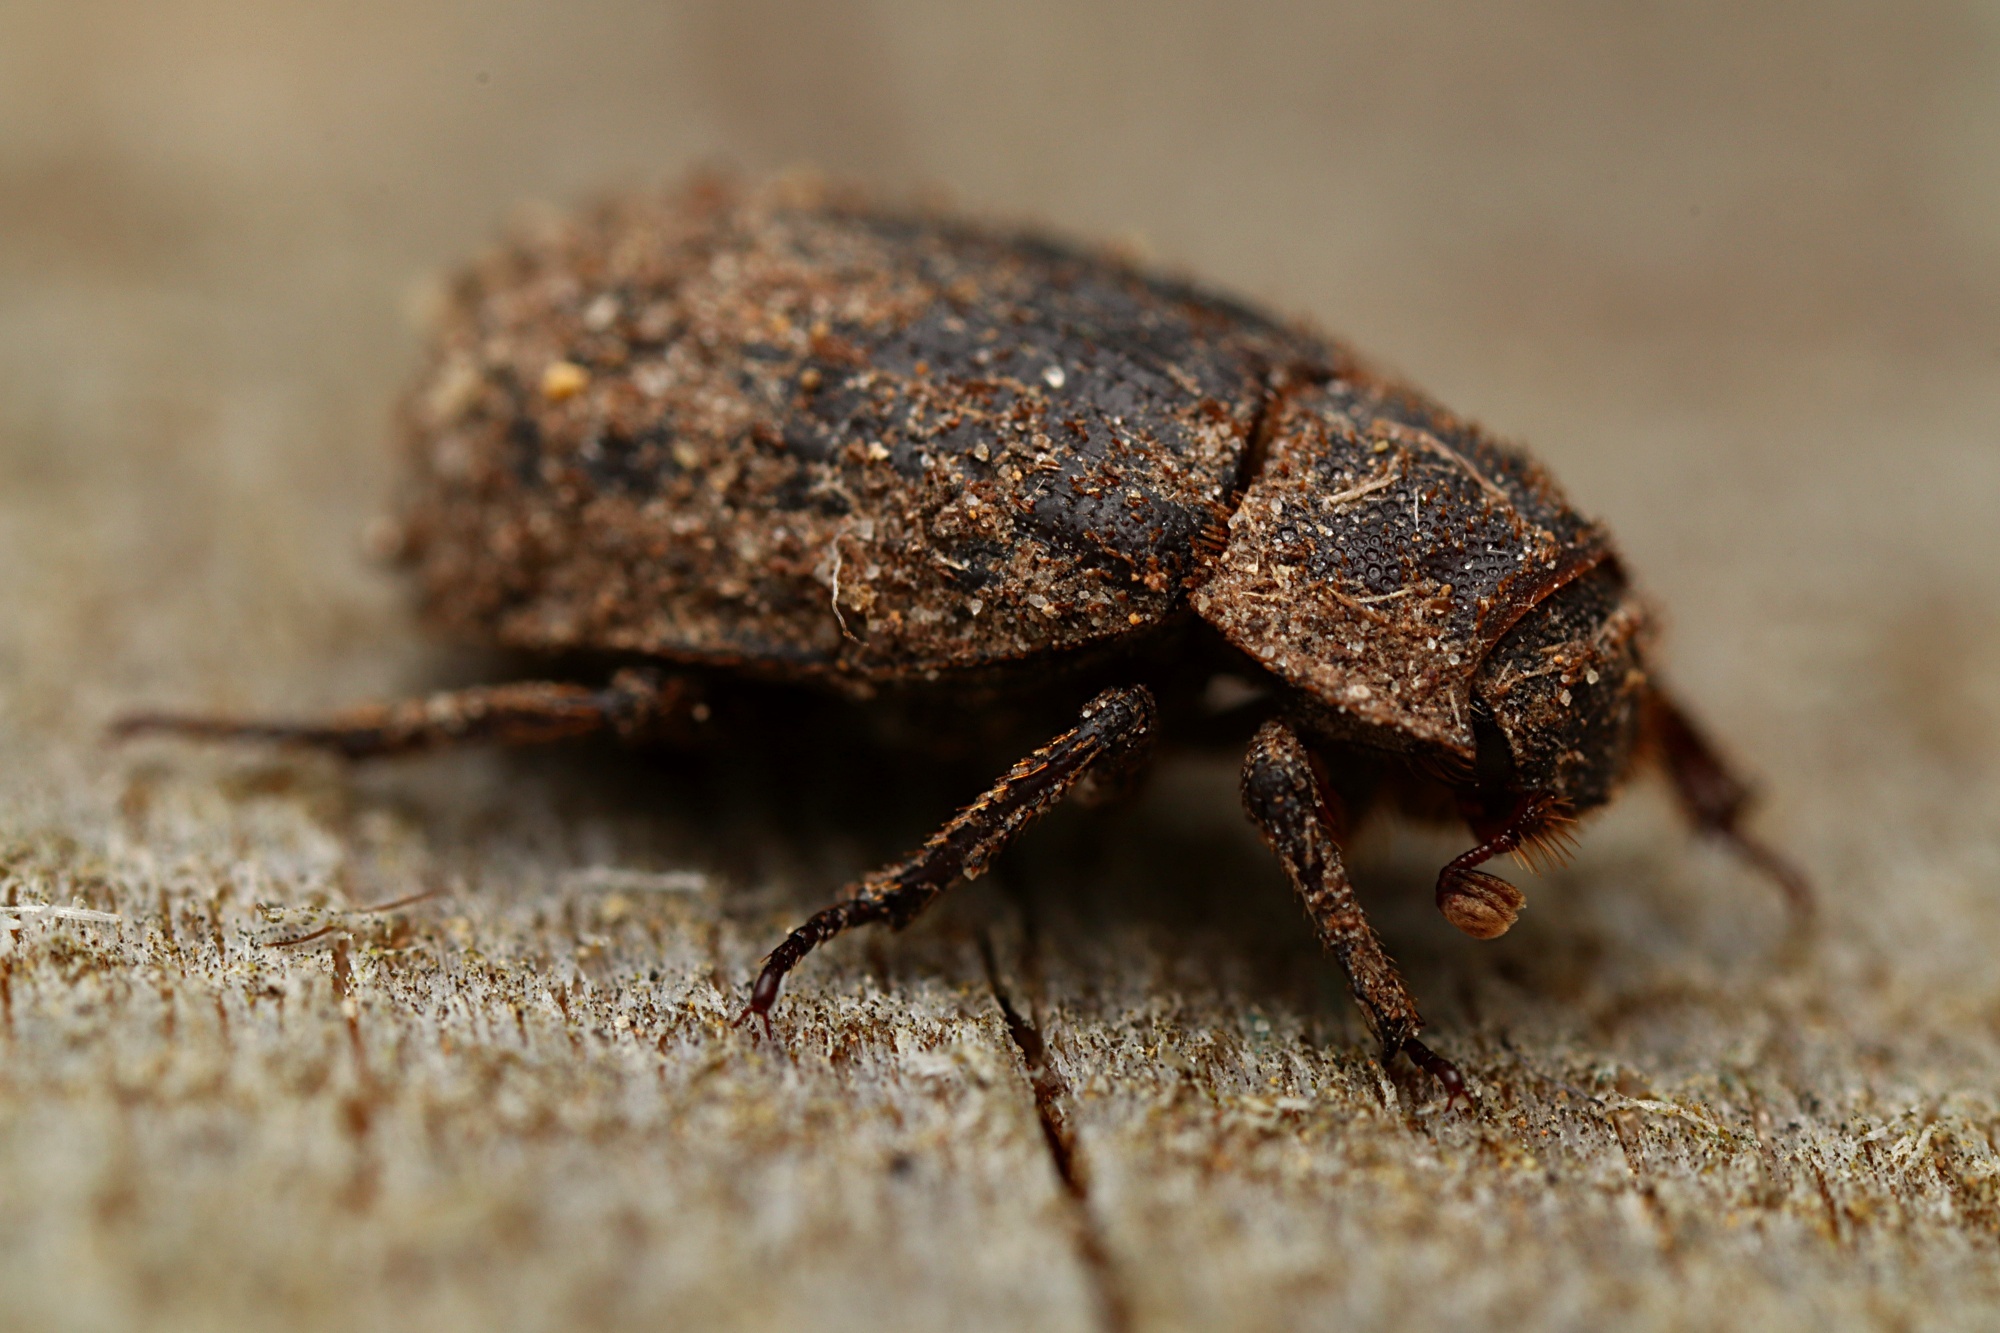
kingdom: Animalia
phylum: Arthropoda
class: Insecta
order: Coleoptera
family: Trogidae
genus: Trox
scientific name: Trox scaber
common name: Hide beetle
